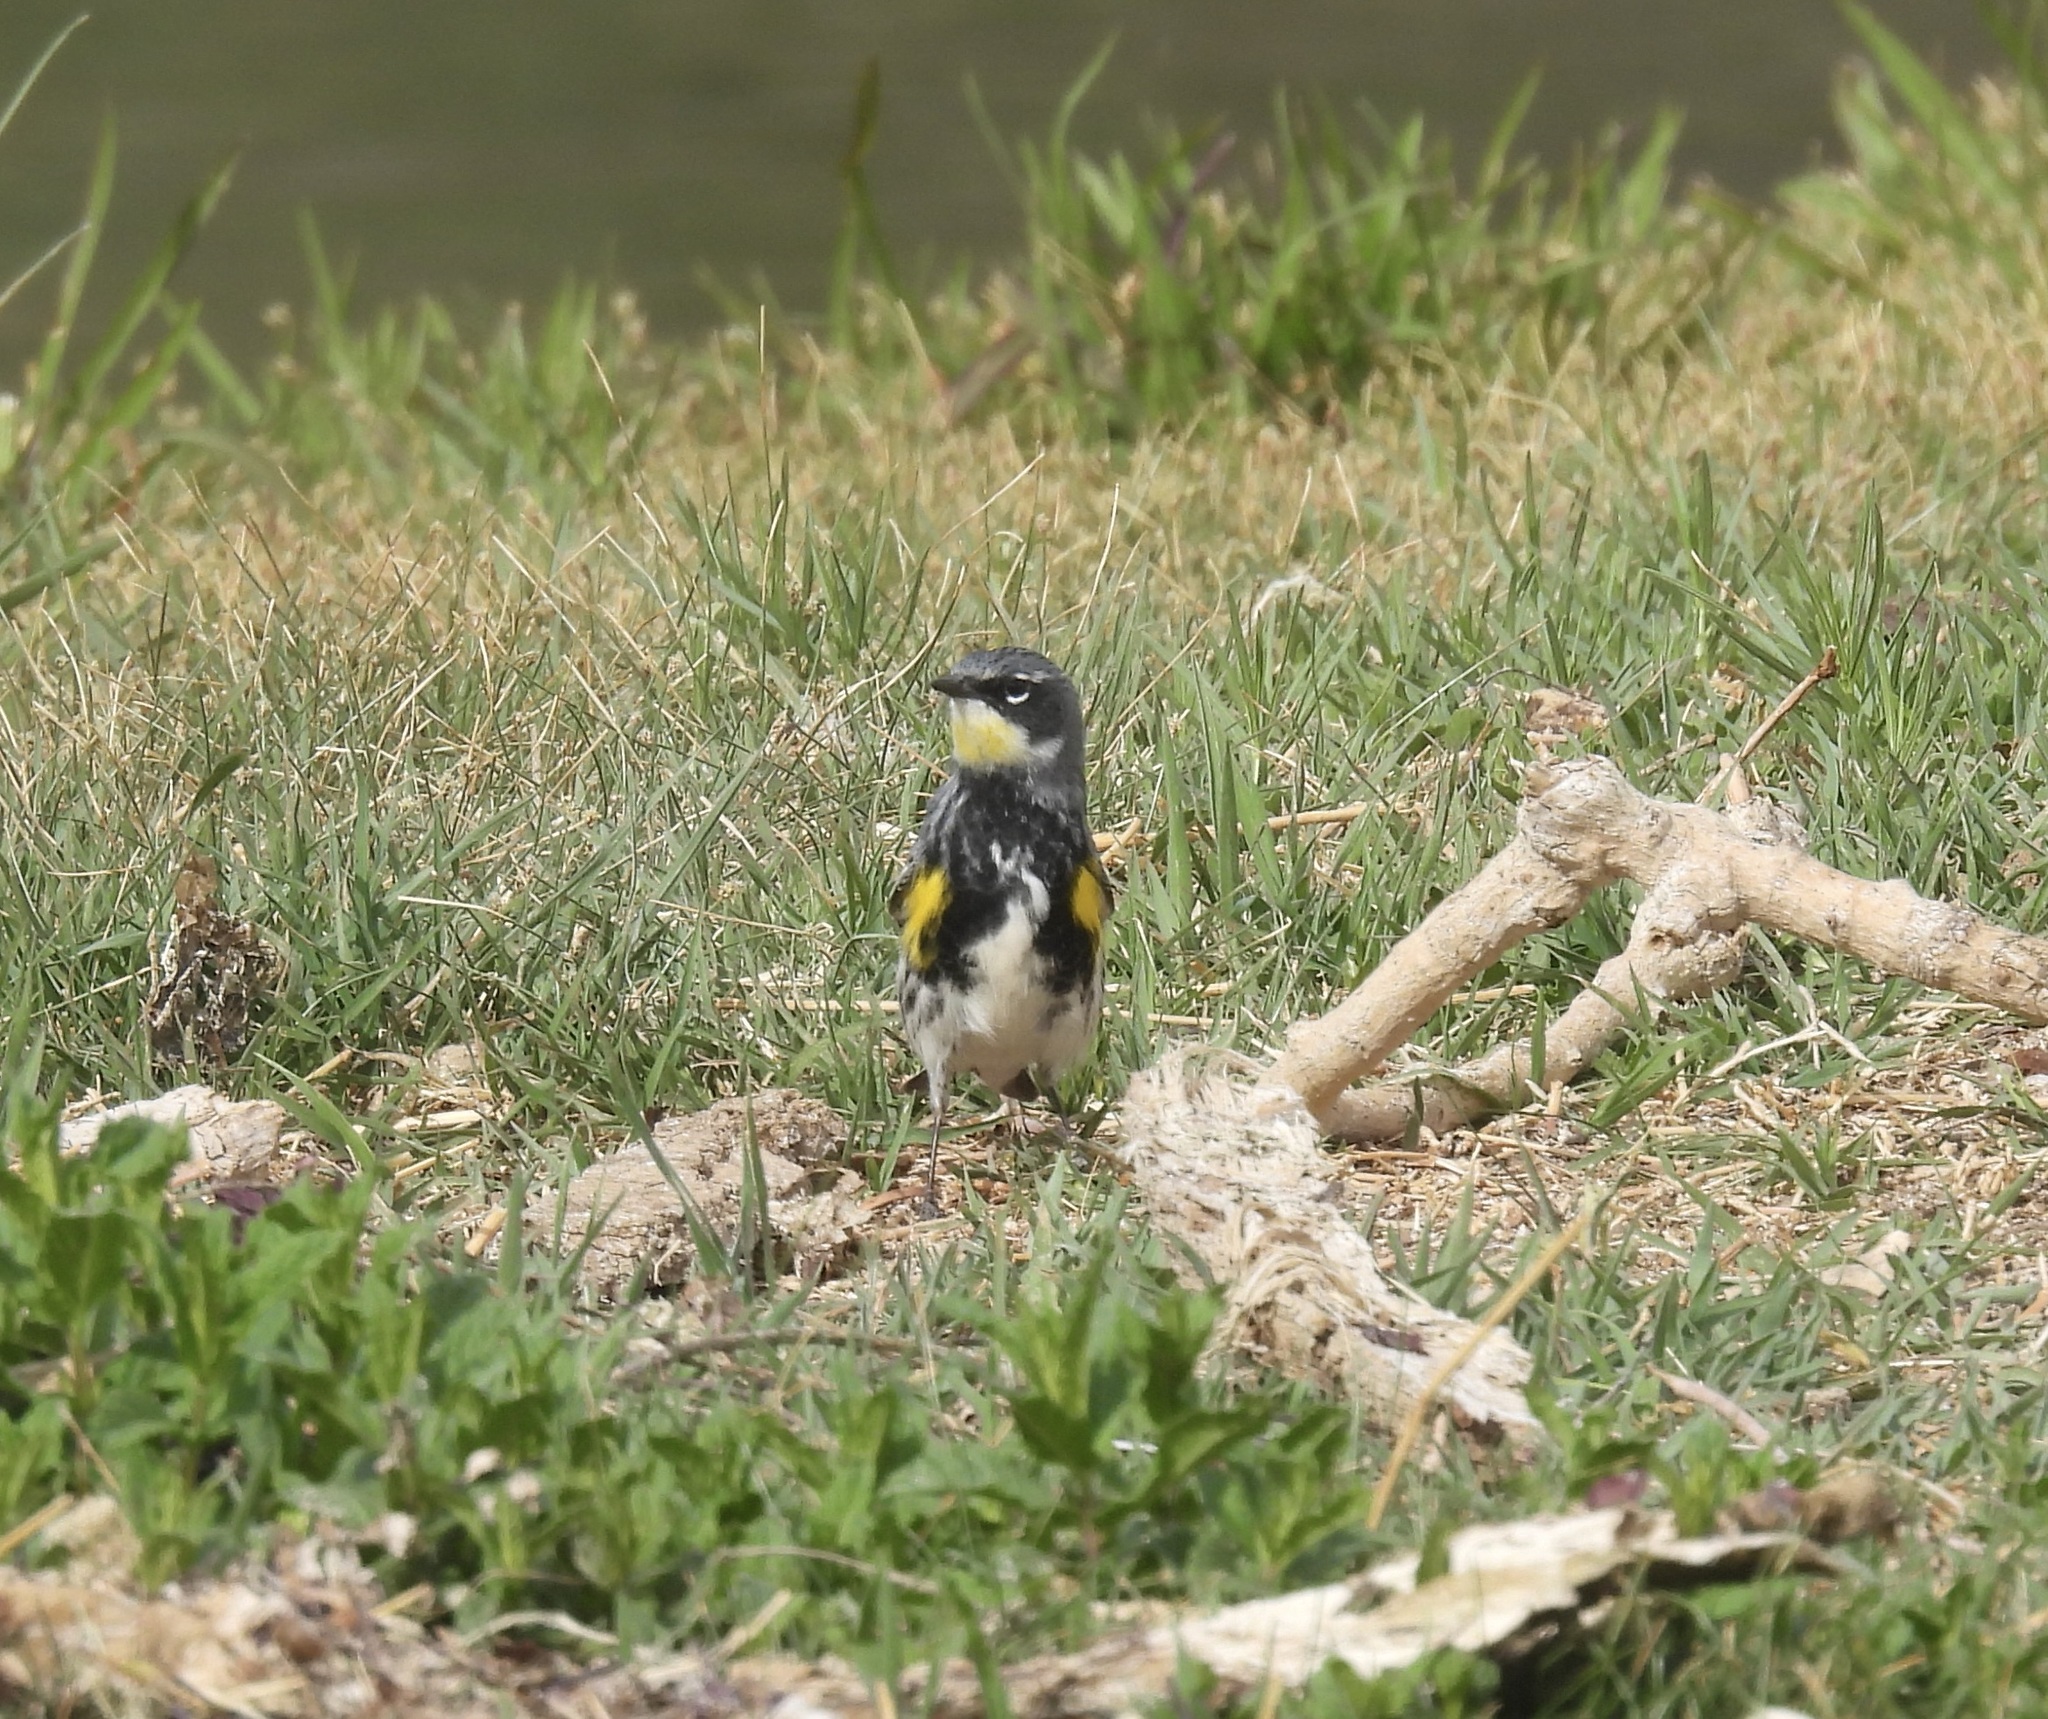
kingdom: Animalia
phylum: Chordata
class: Aves
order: Passeriformes
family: Parulidae
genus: Setophaga
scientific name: Setophaga
